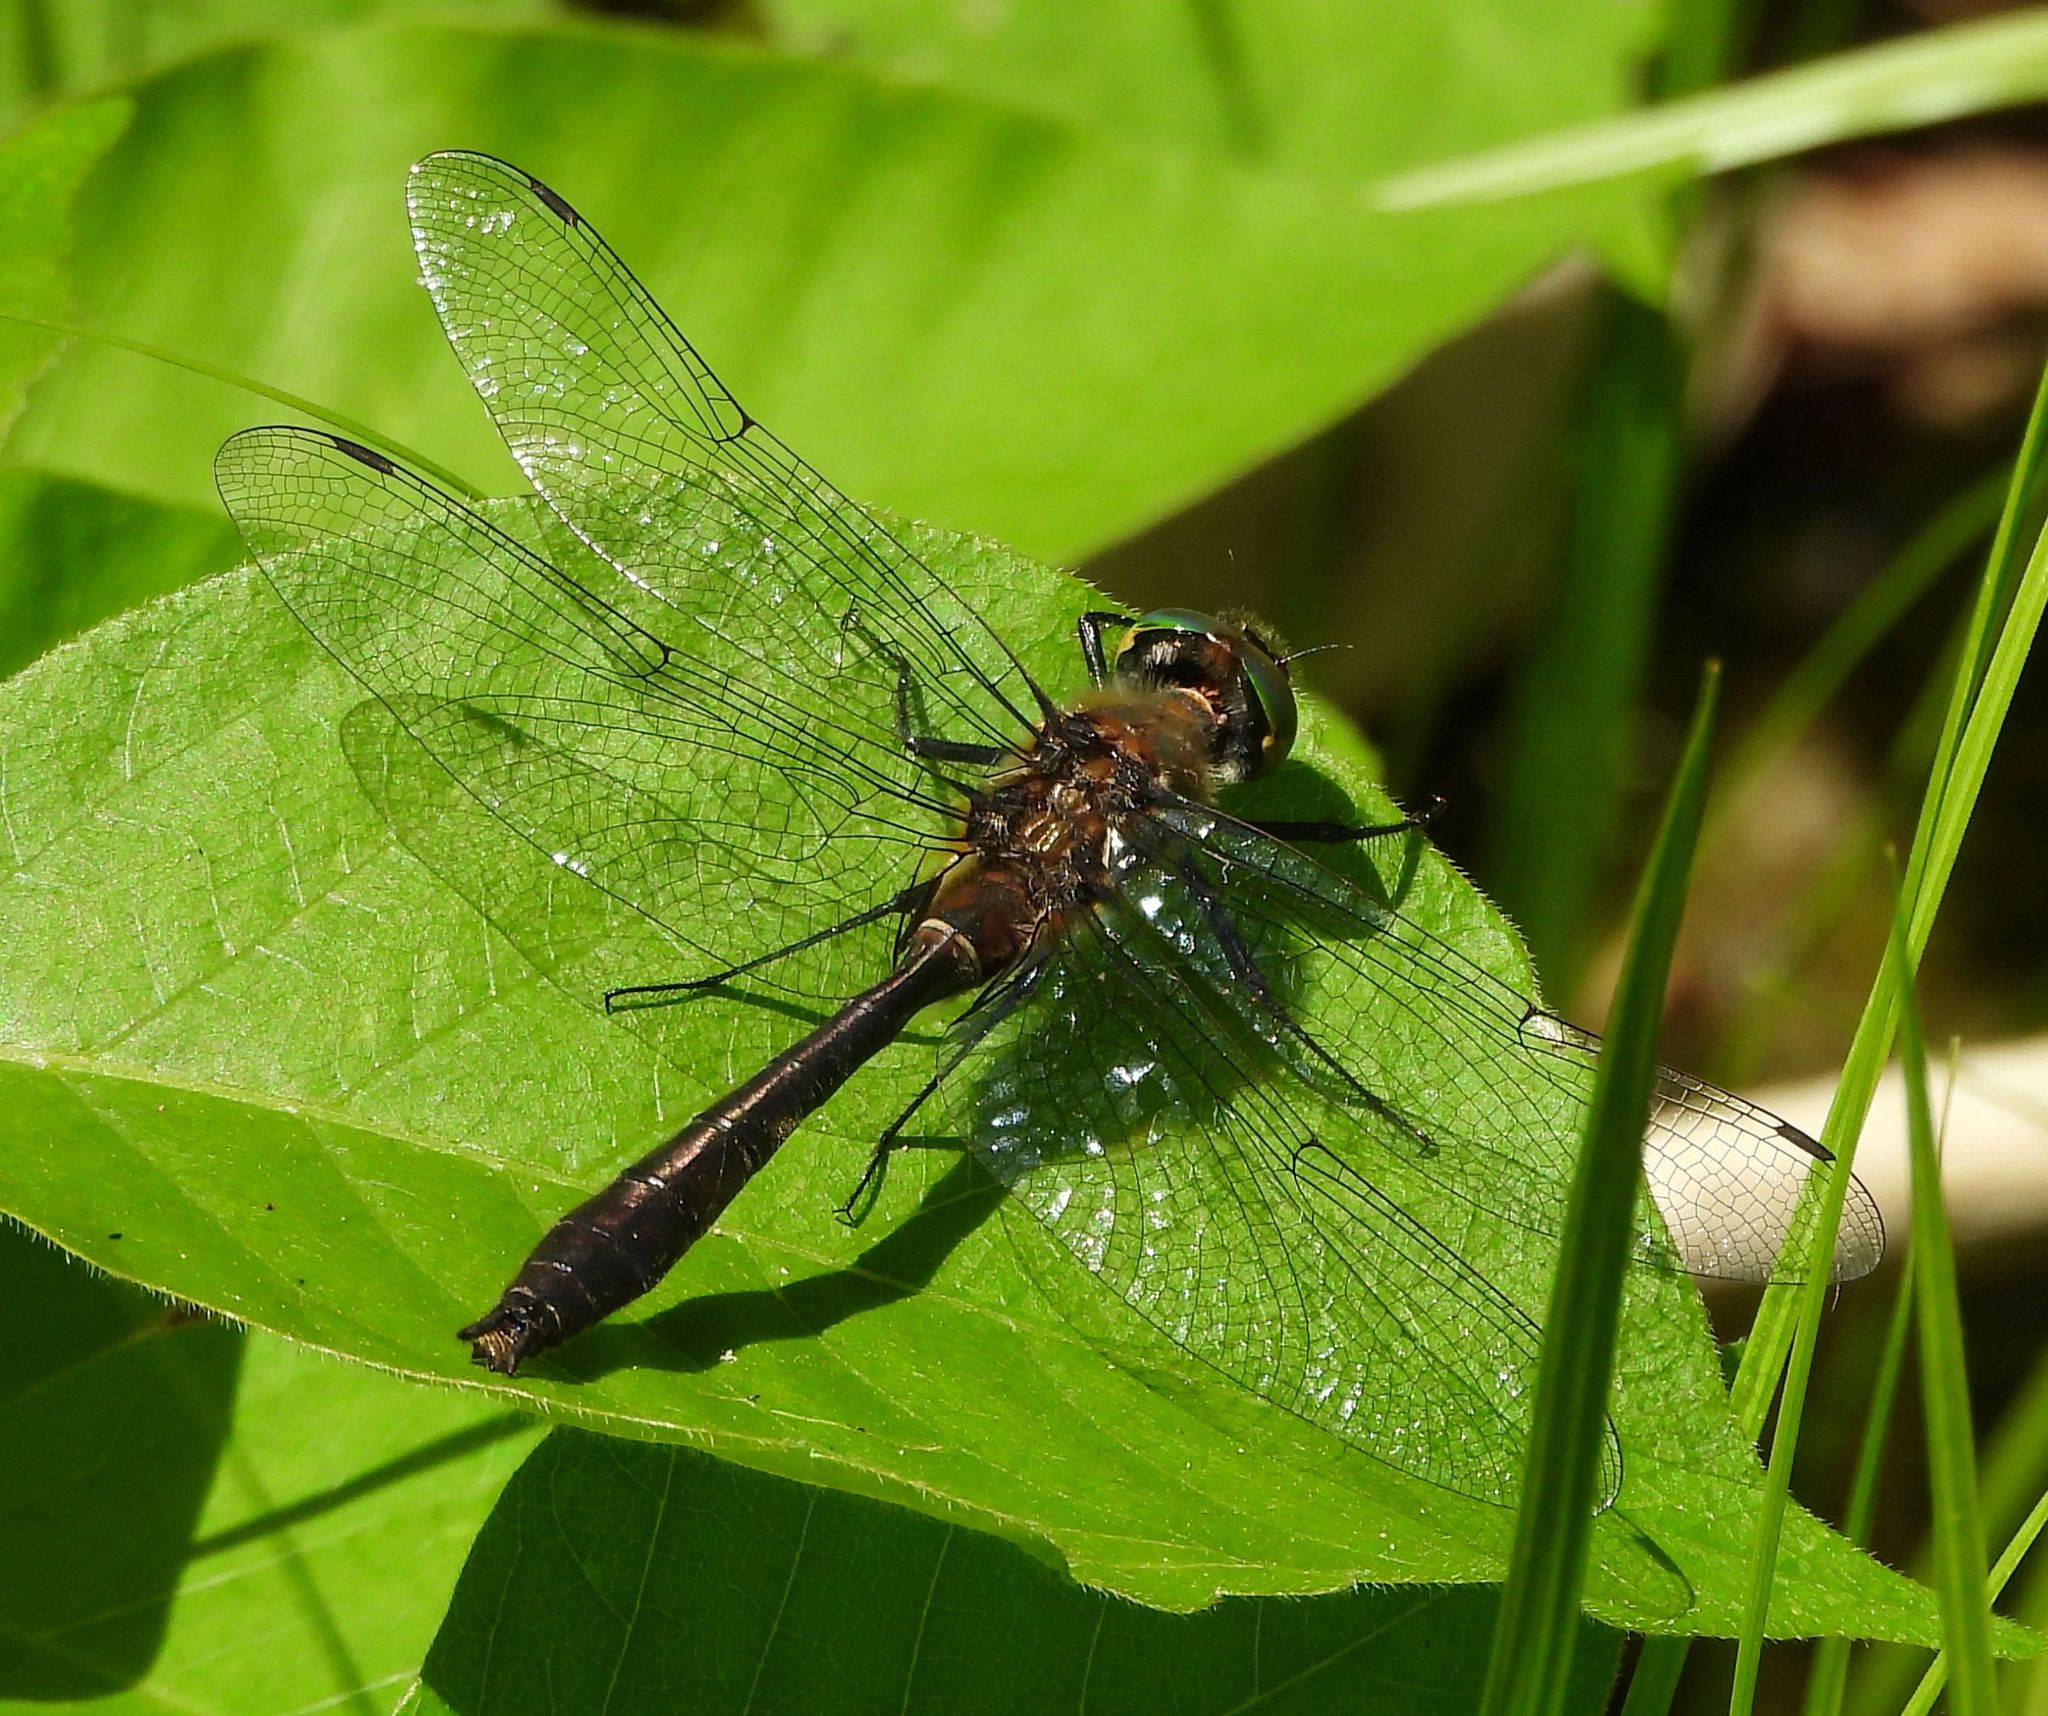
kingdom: Animalia
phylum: Arthropoda
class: Insecta
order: Odonata
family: Corduliidae
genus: Cordulia
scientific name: Cordulia shurtleffii
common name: American emerald
